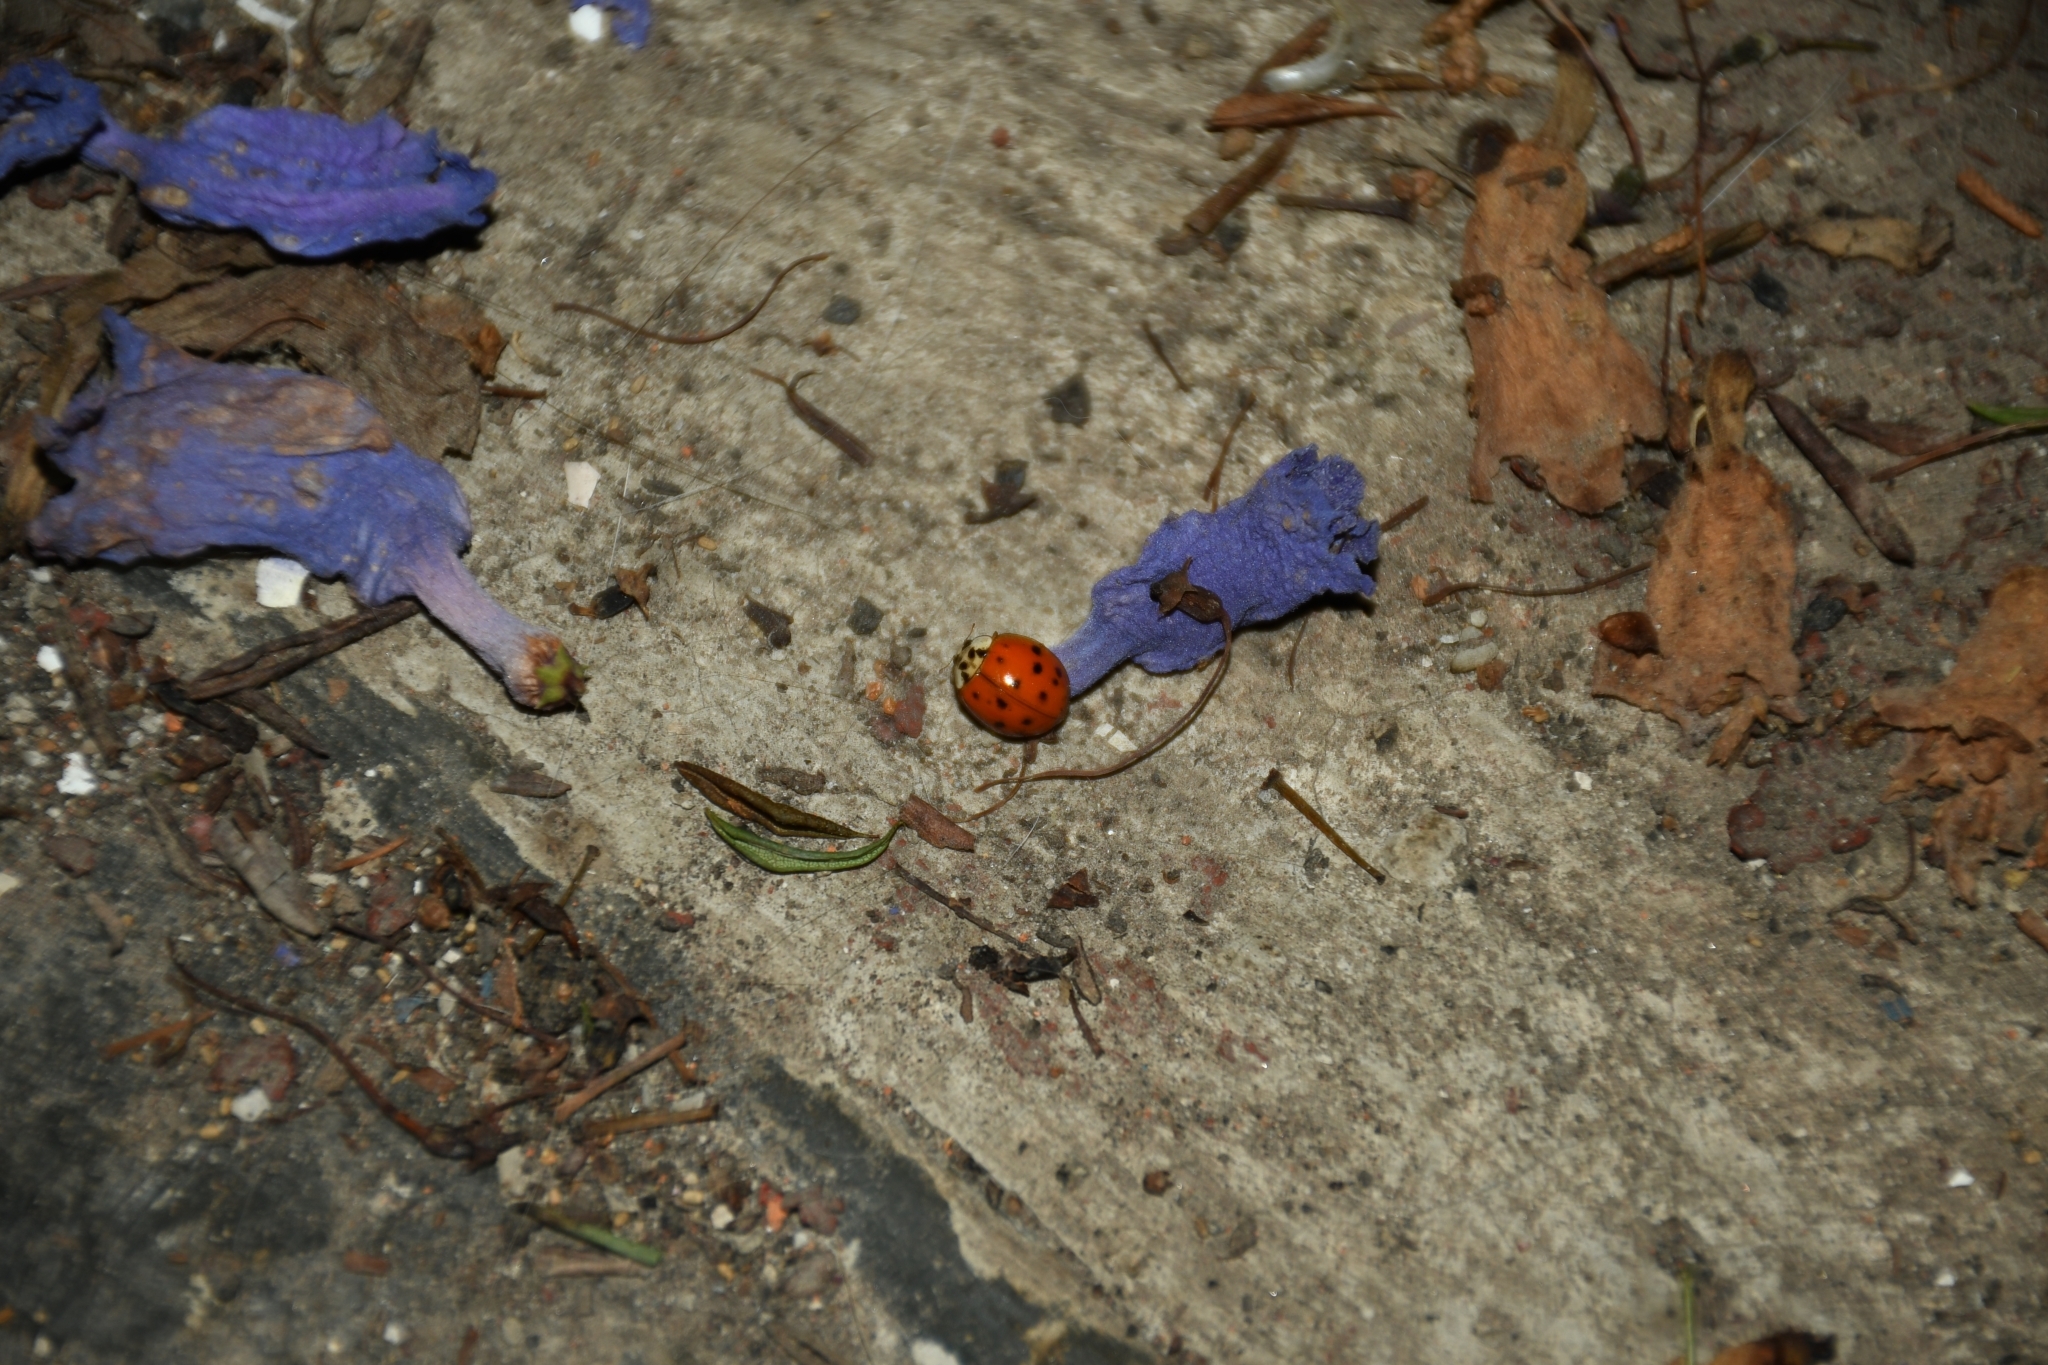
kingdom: Animalia
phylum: Arthropoda
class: Insecta
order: Coleoptera
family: Coccinellidae
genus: Harmonia
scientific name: Harmonia axyridis
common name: Harlequin ladybird
